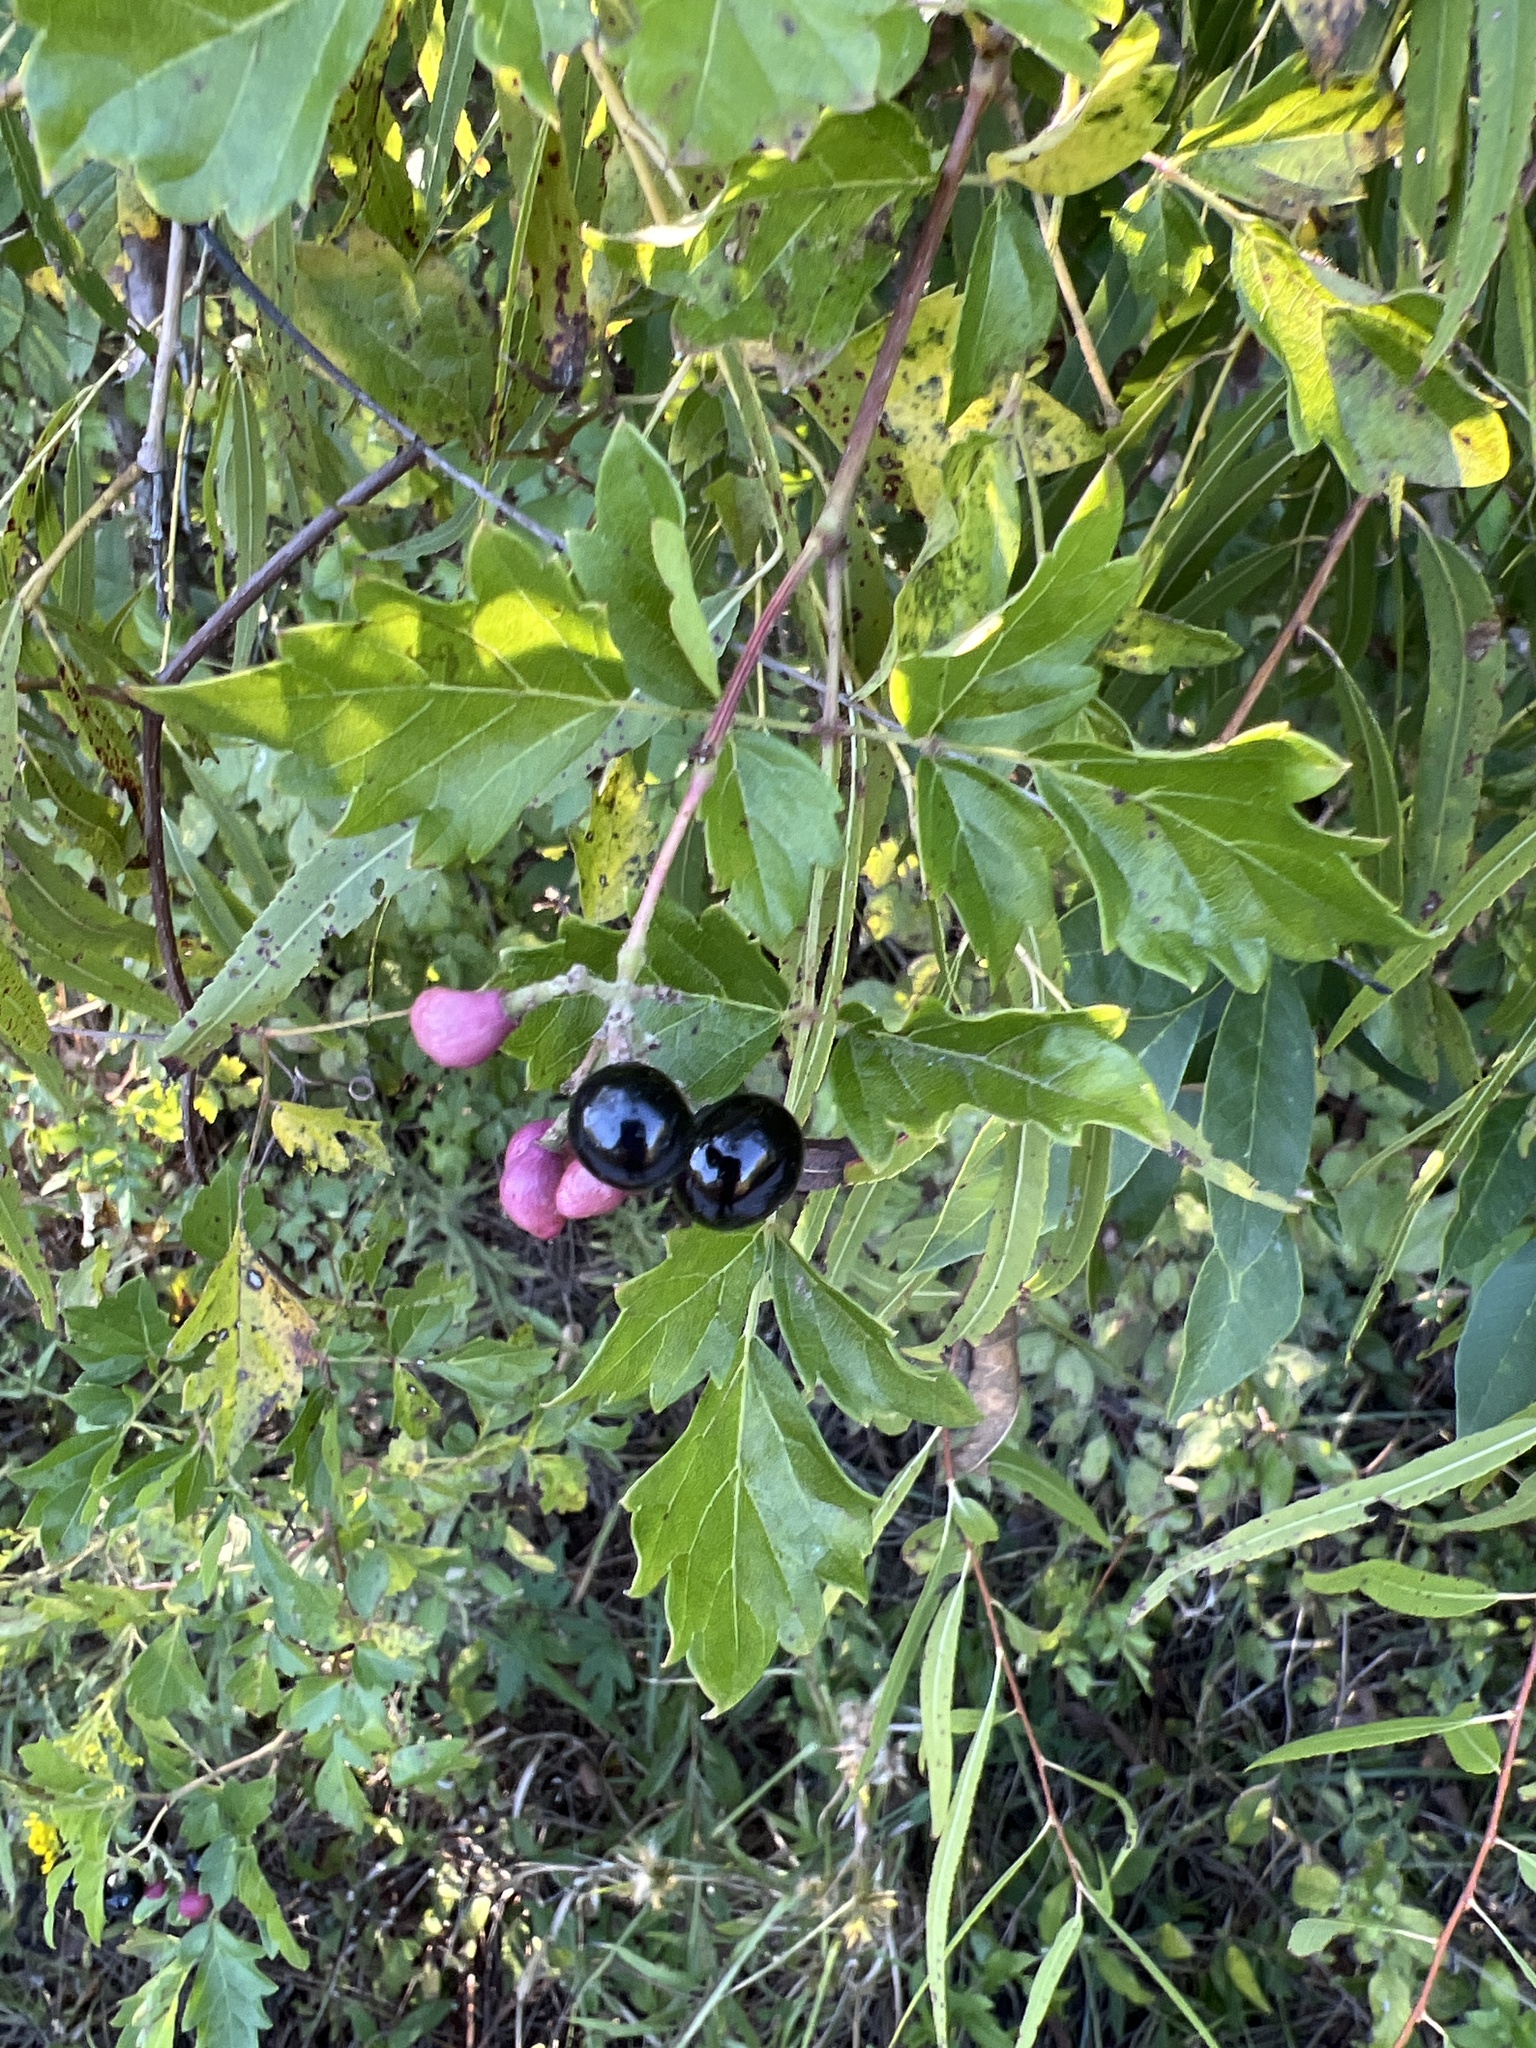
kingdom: Plantae
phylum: Tracheophyta
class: Magnoliopsida
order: Vitales
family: Vitaceae
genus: Nekemias
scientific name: Nekemias arborea
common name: Peppervine
